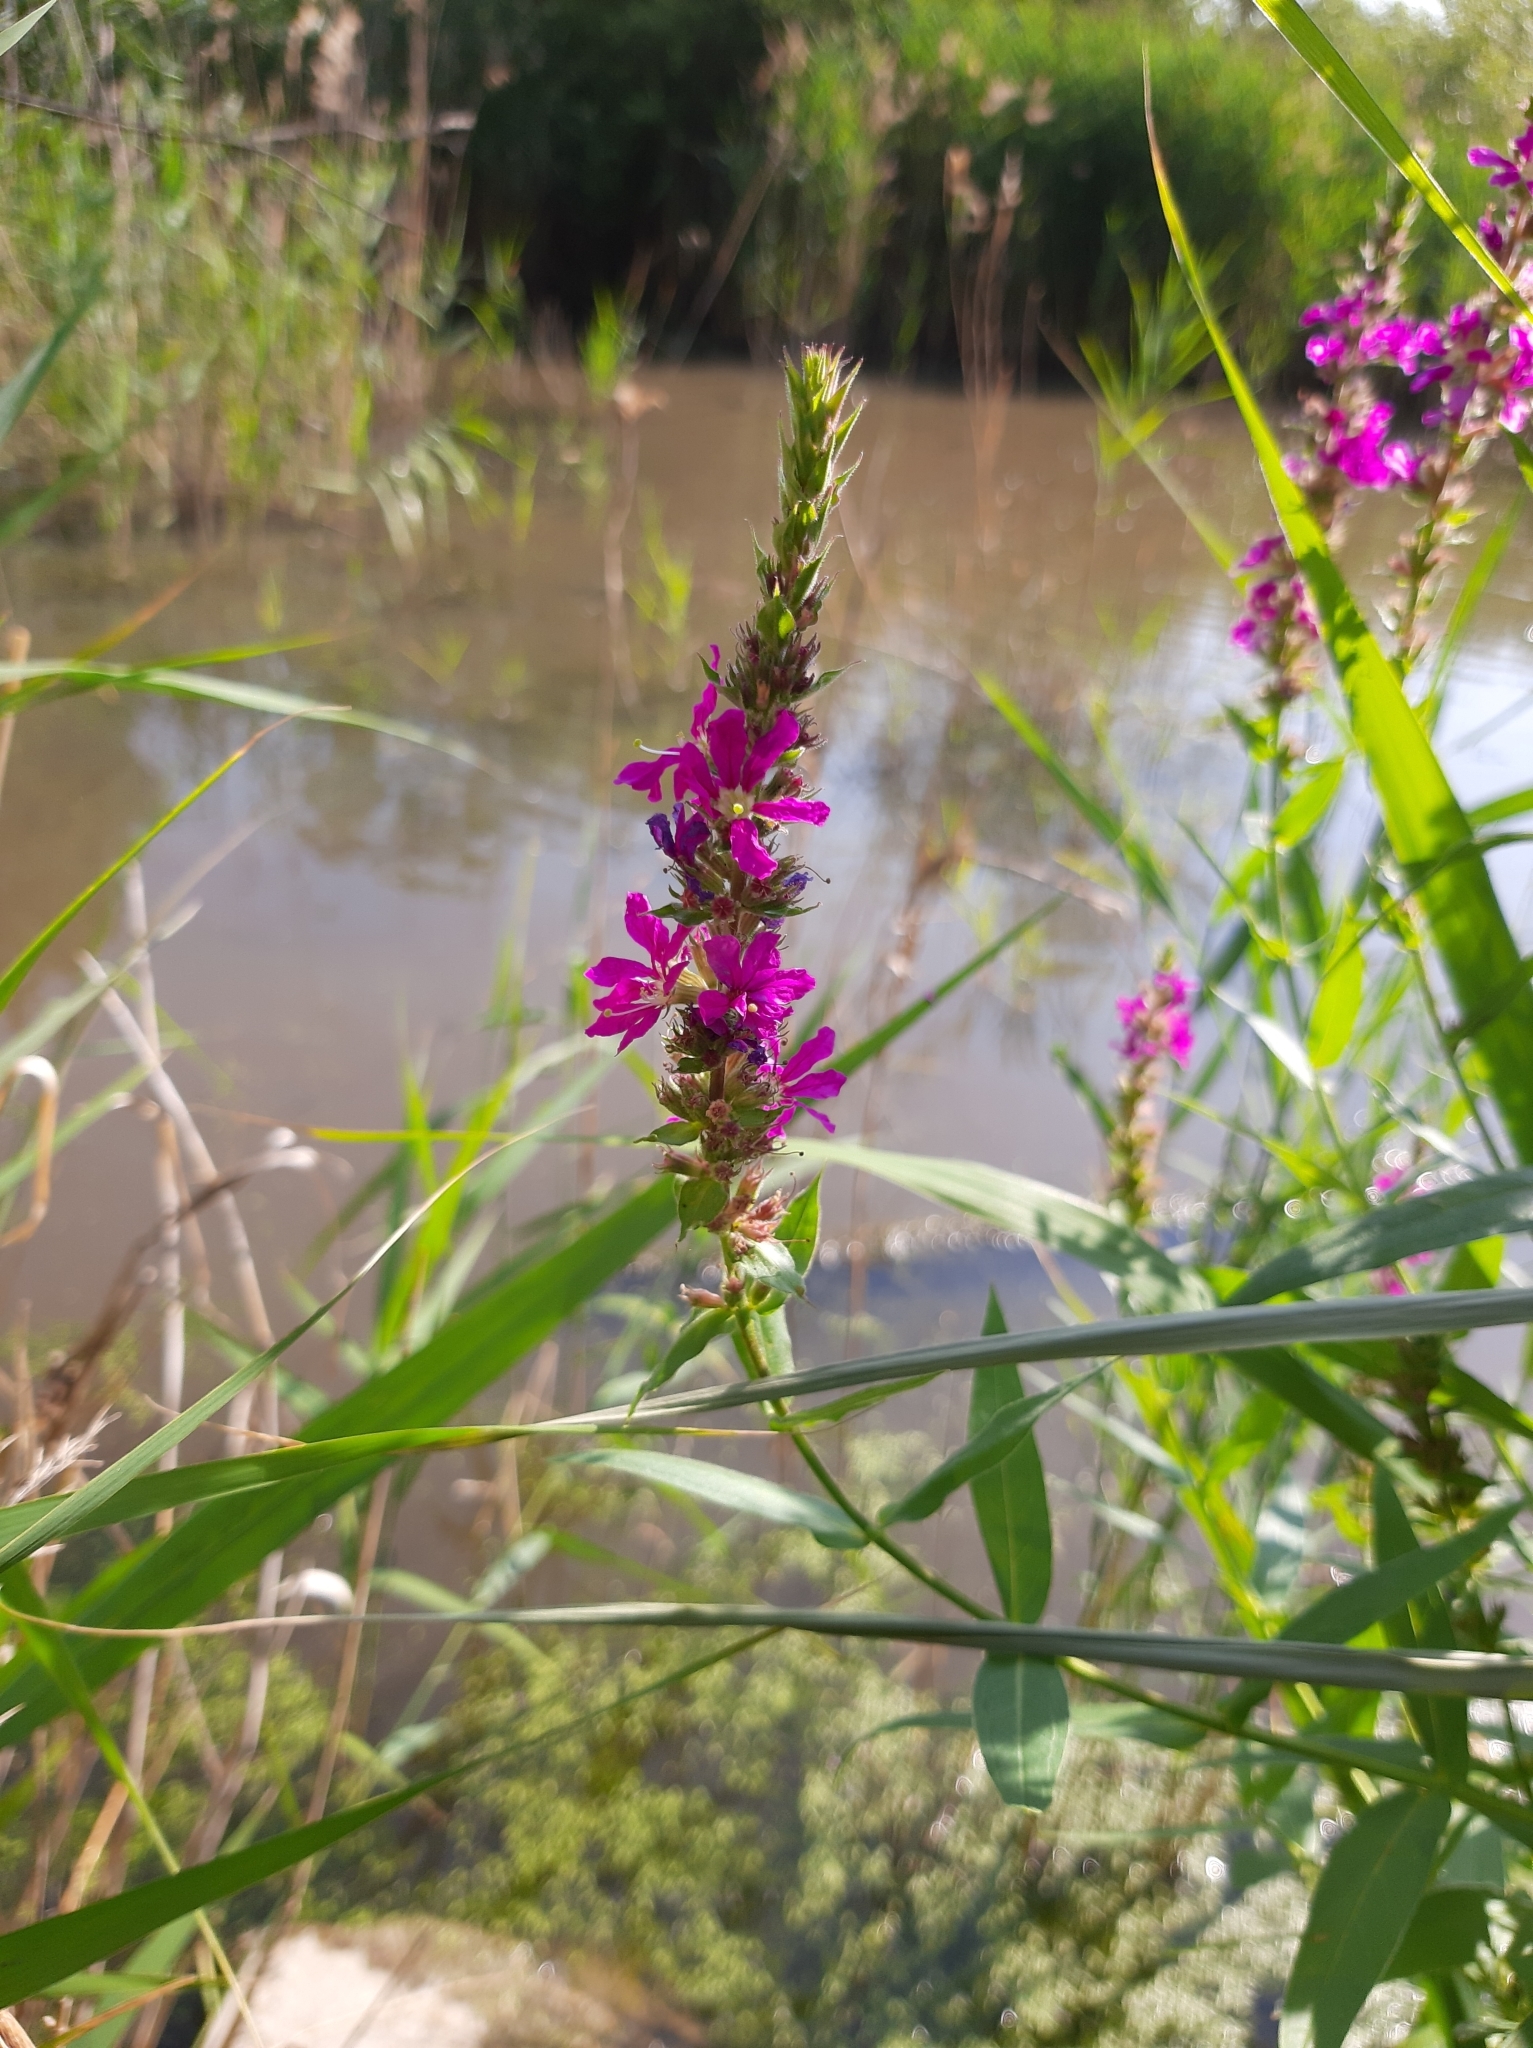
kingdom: Plantae
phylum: Tracheophyta
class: Magnoliopsida
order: Myrtales
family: Lythraceae
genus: Lythrum
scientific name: Lythrum salicaria
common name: Purple loosestrife
